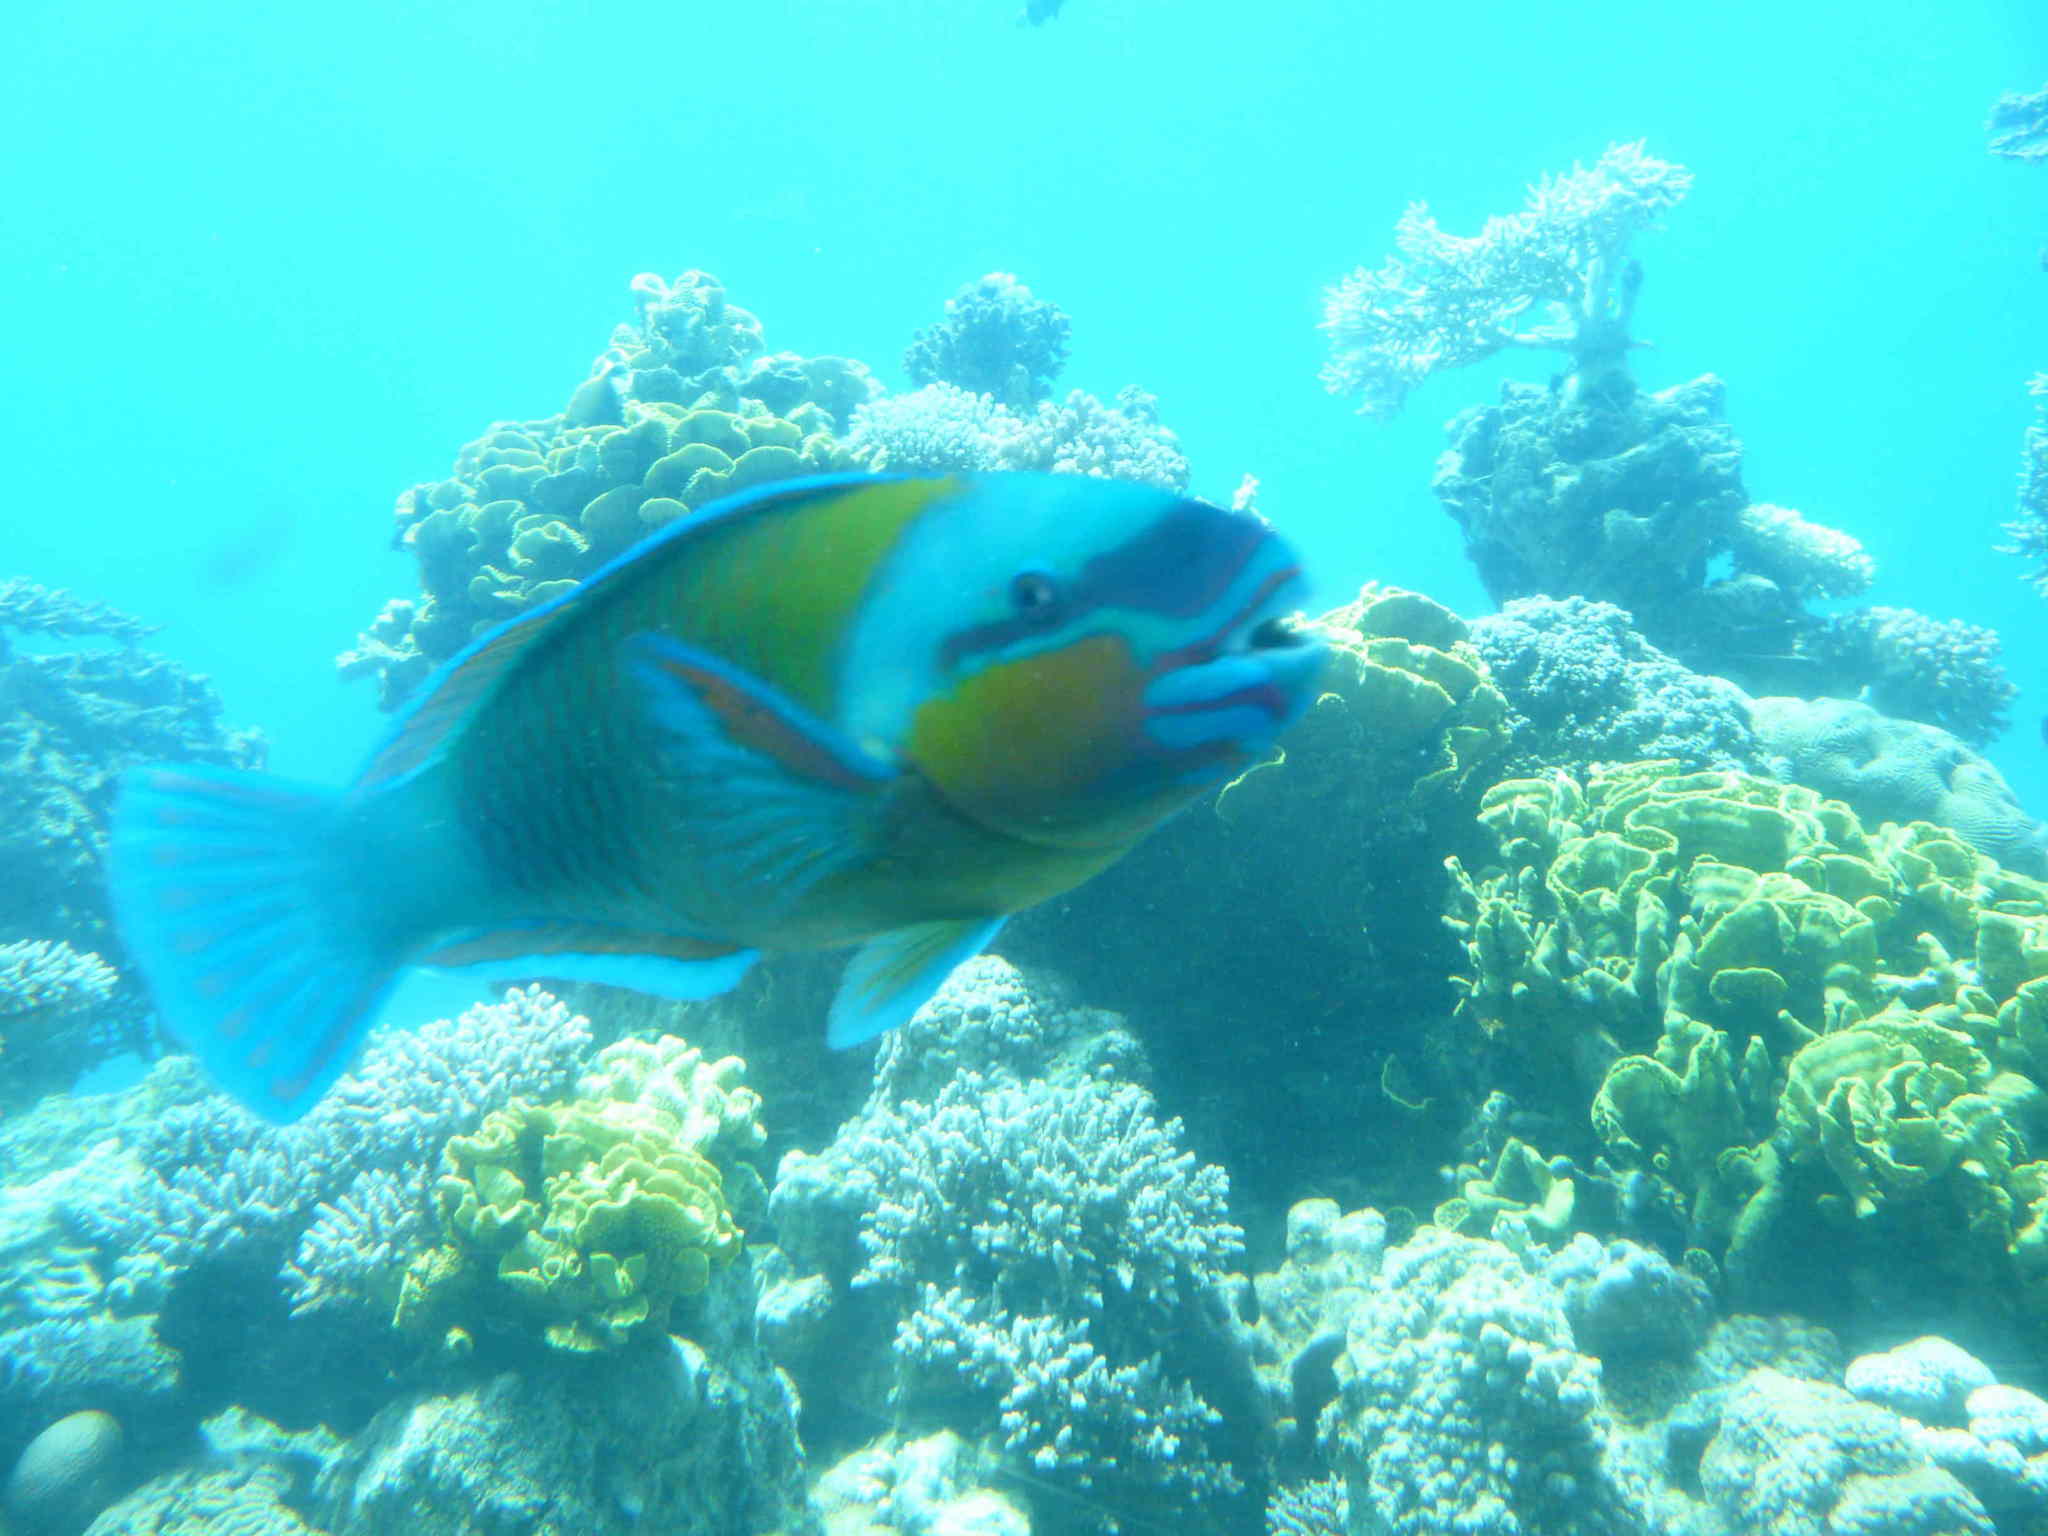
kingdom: Animalia
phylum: Chordata
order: Perciformes
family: Scaridae
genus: Chlorurus
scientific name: Chlorurus sordidus
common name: Bullethead parrotfish
